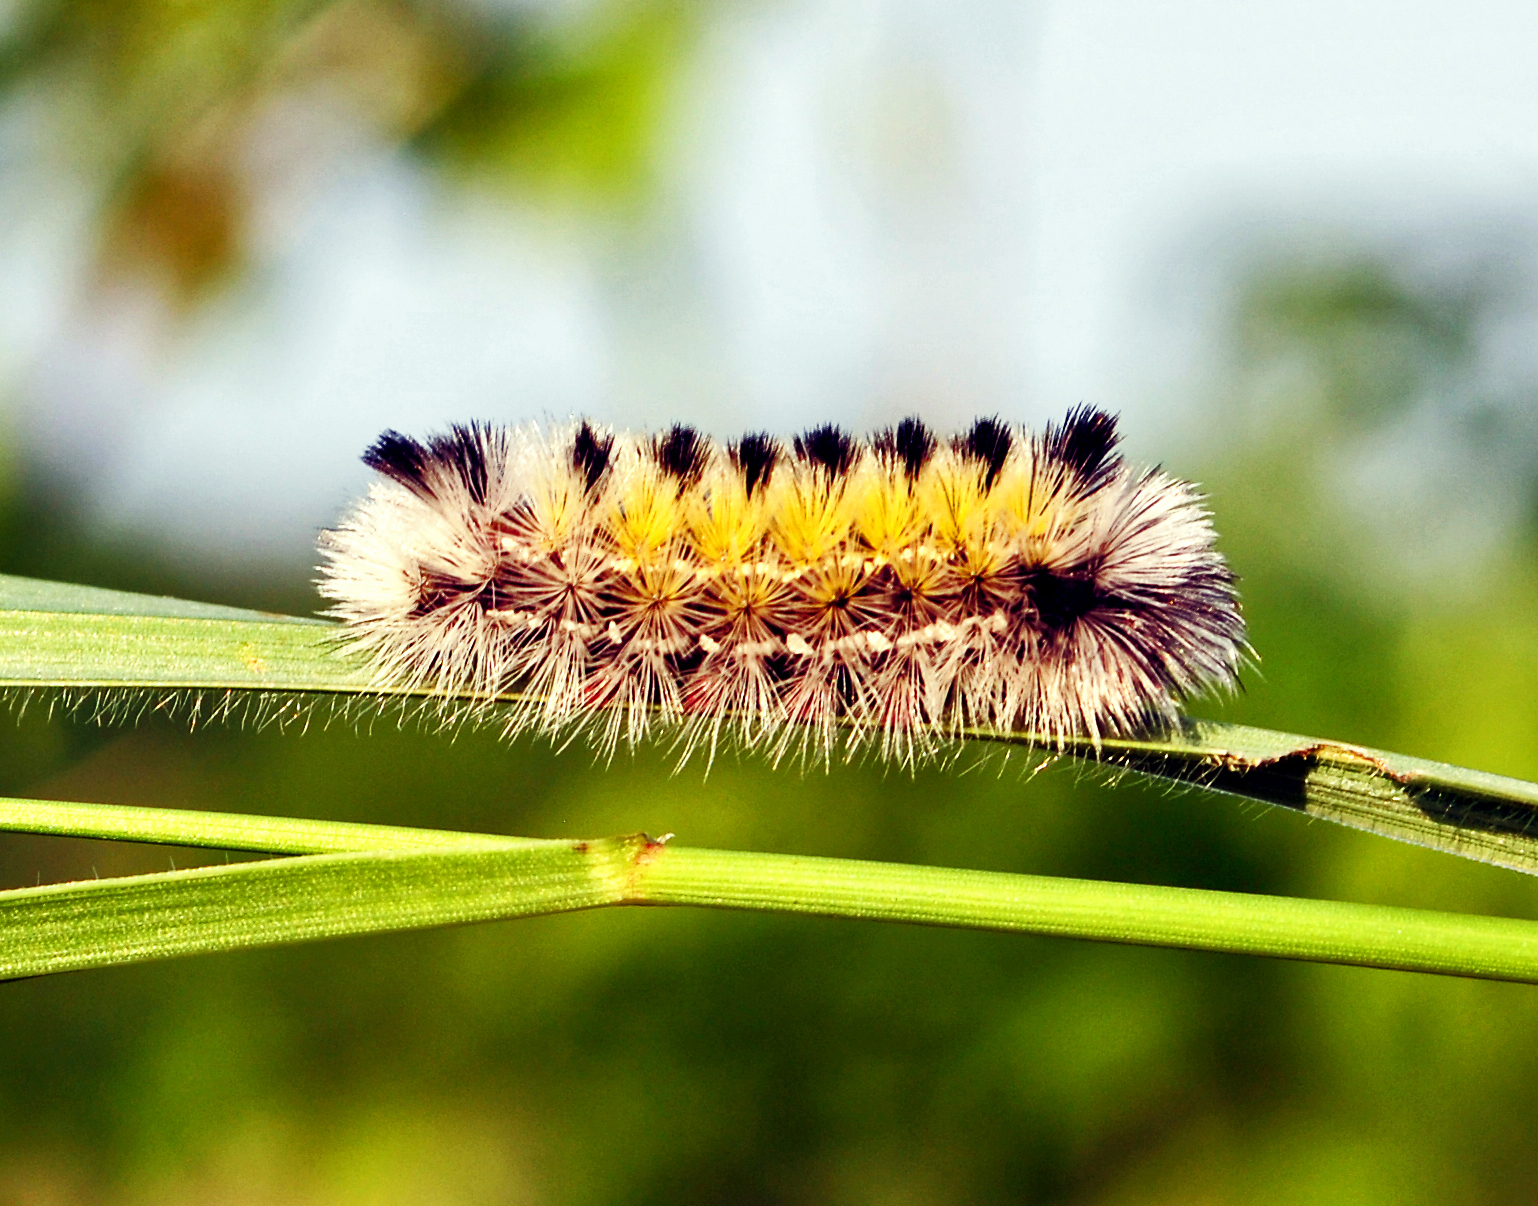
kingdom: Animalia
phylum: Arthropoda
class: Insecta
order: Lepidoptera
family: Erebidae
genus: Ctenucha
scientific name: Ctenucha virginica
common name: Virginia ctenucha moth
